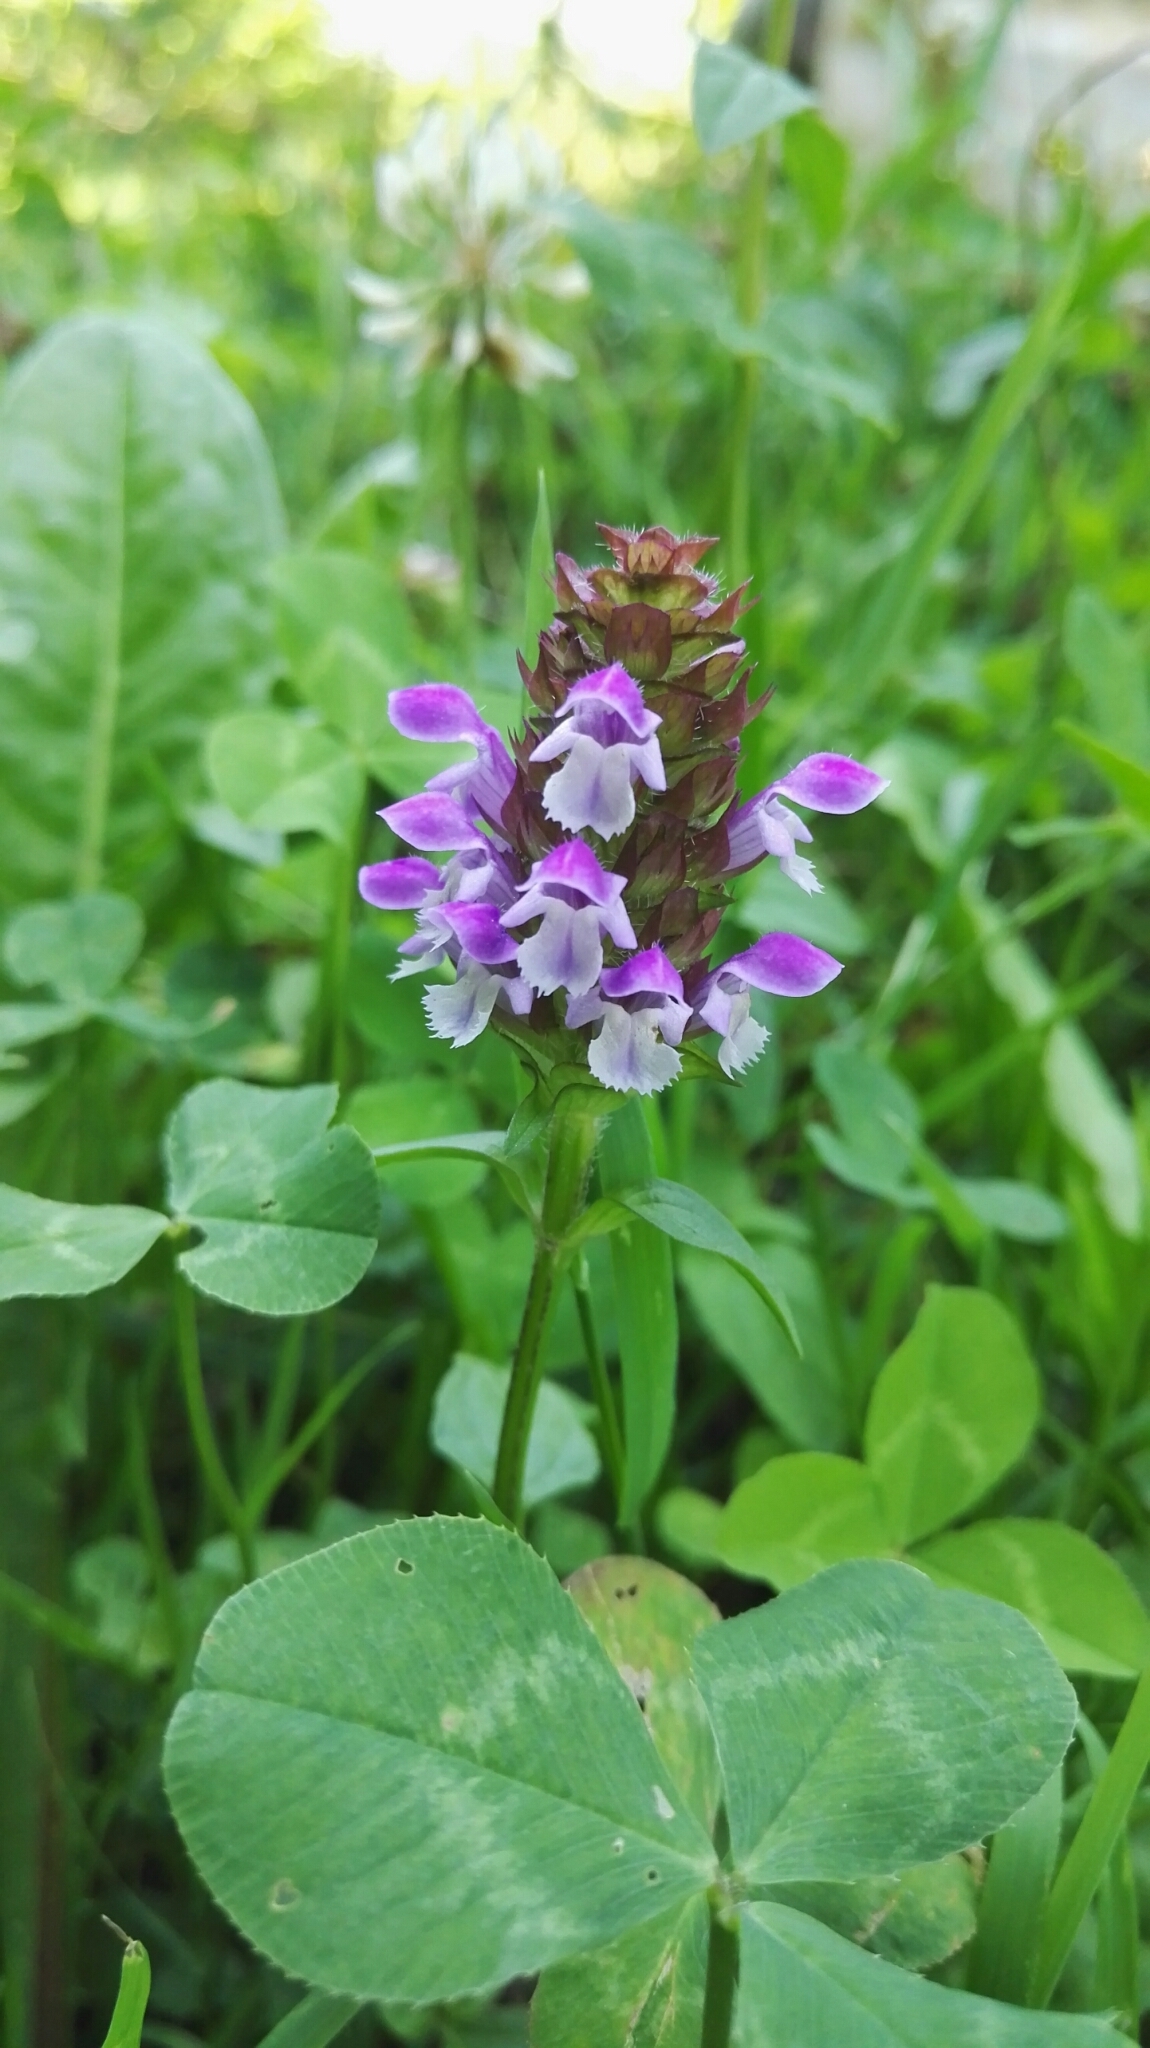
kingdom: Plantae
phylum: Tracheophyta
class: Magnoliopsida
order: Lamiales
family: Lamiaceae
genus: Prunella
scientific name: Prunella vulgaris
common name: Heal-all
